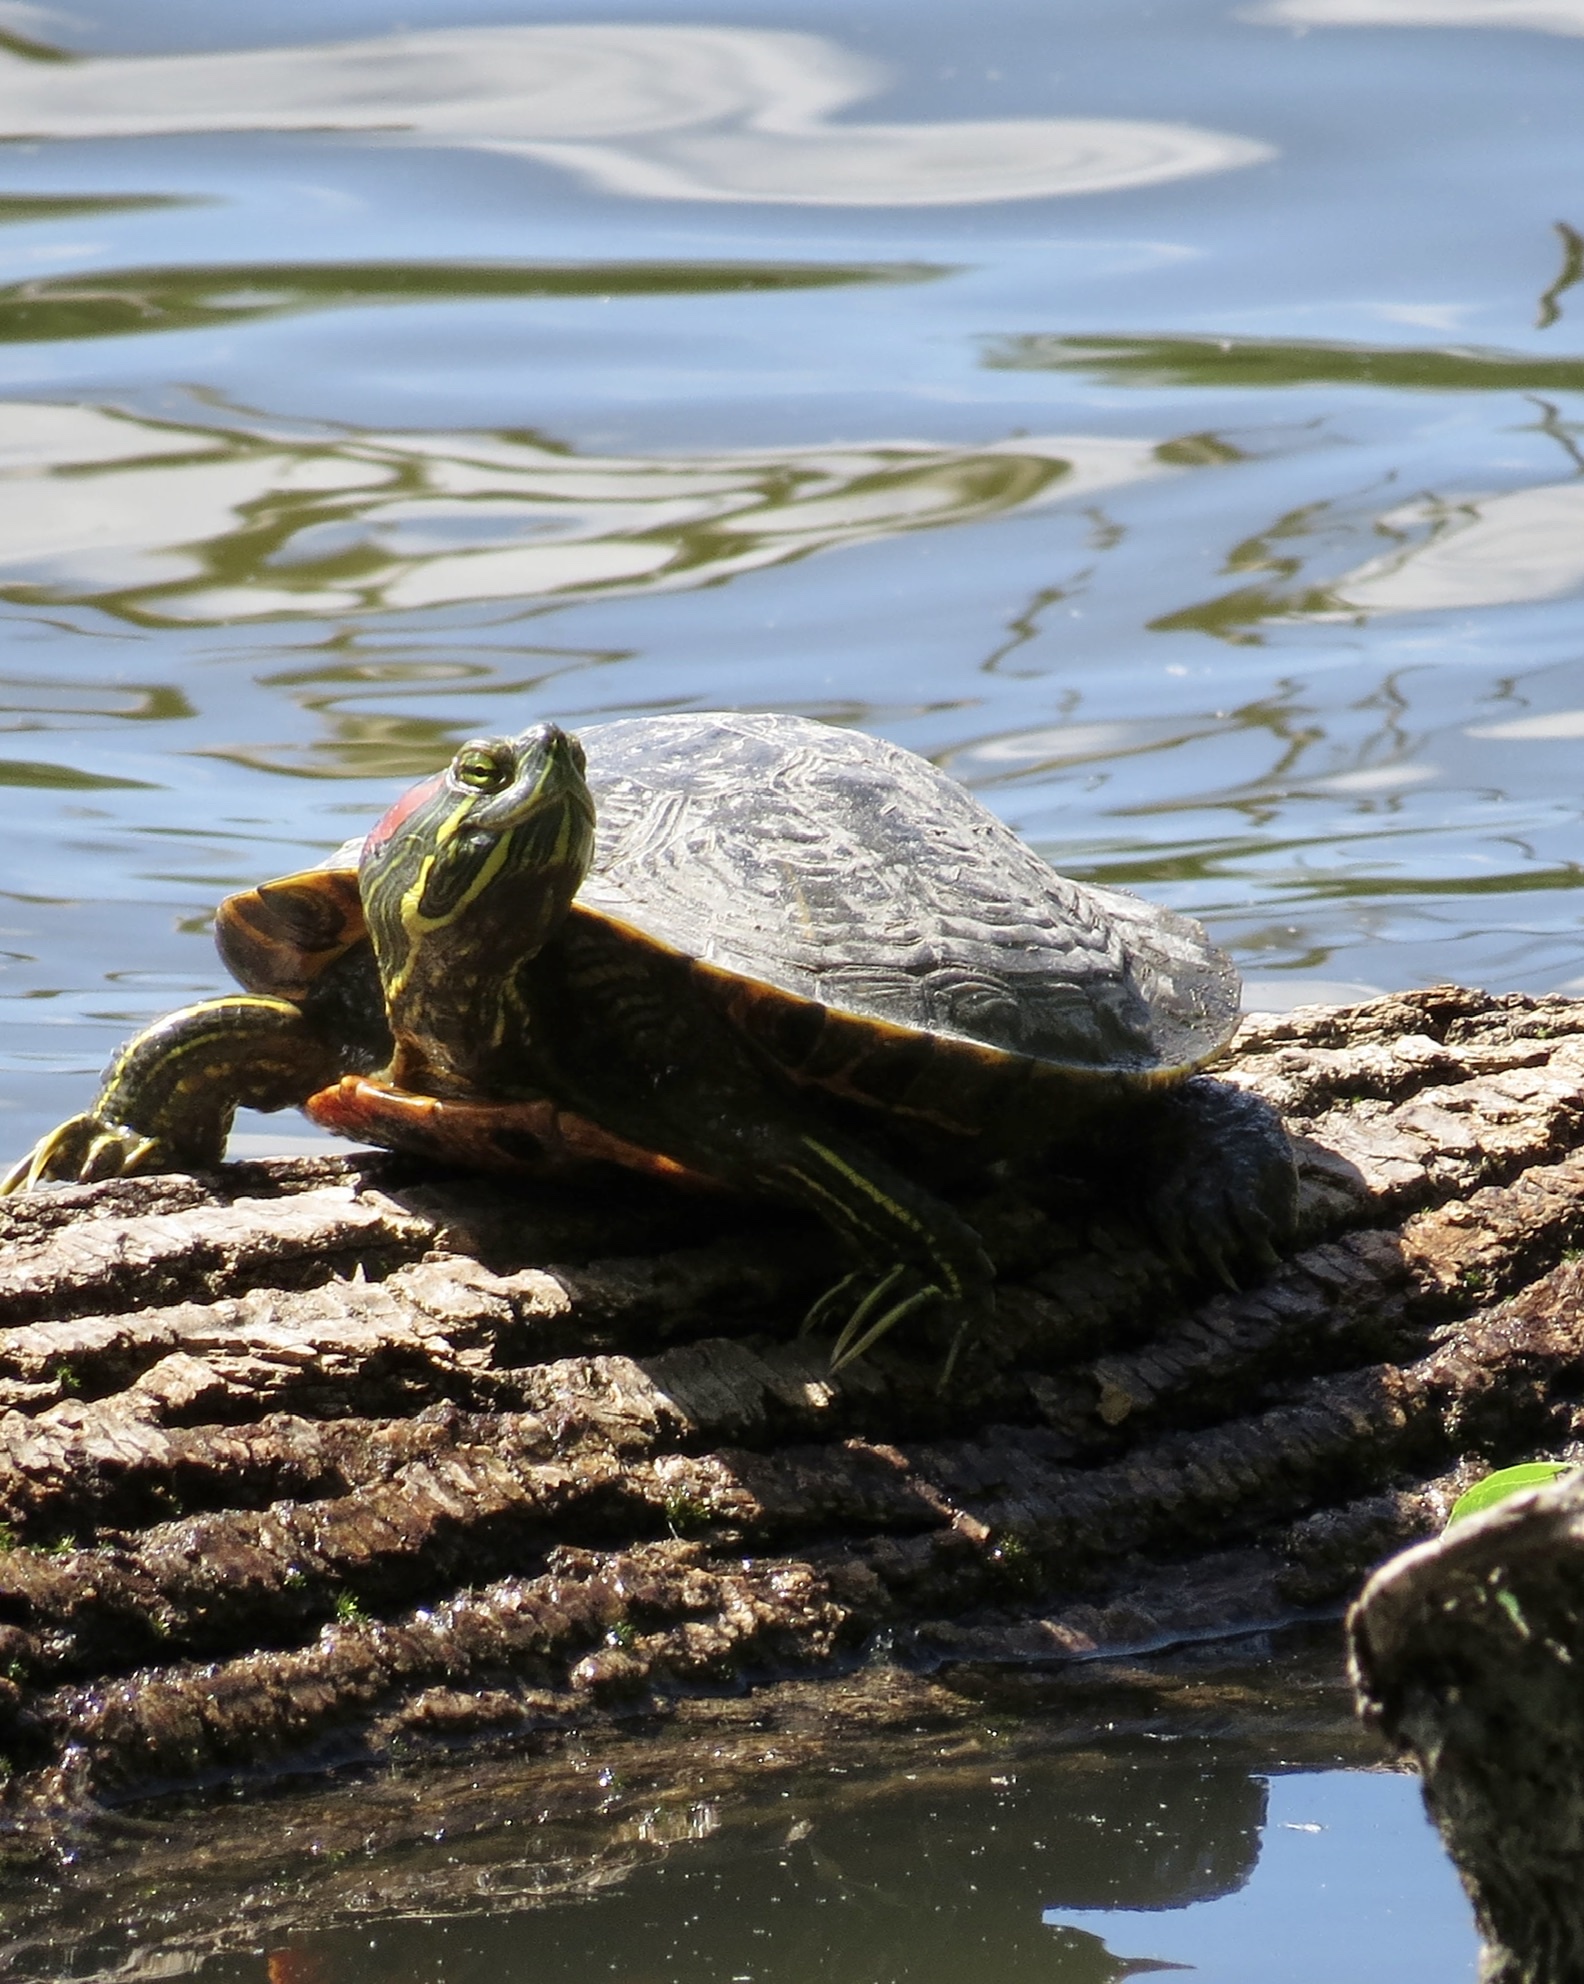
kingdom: Animalia
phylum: Chordata
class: Testudines
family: Emydidae
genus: Trachemys
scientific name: Trachemys scripta
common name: Slider
